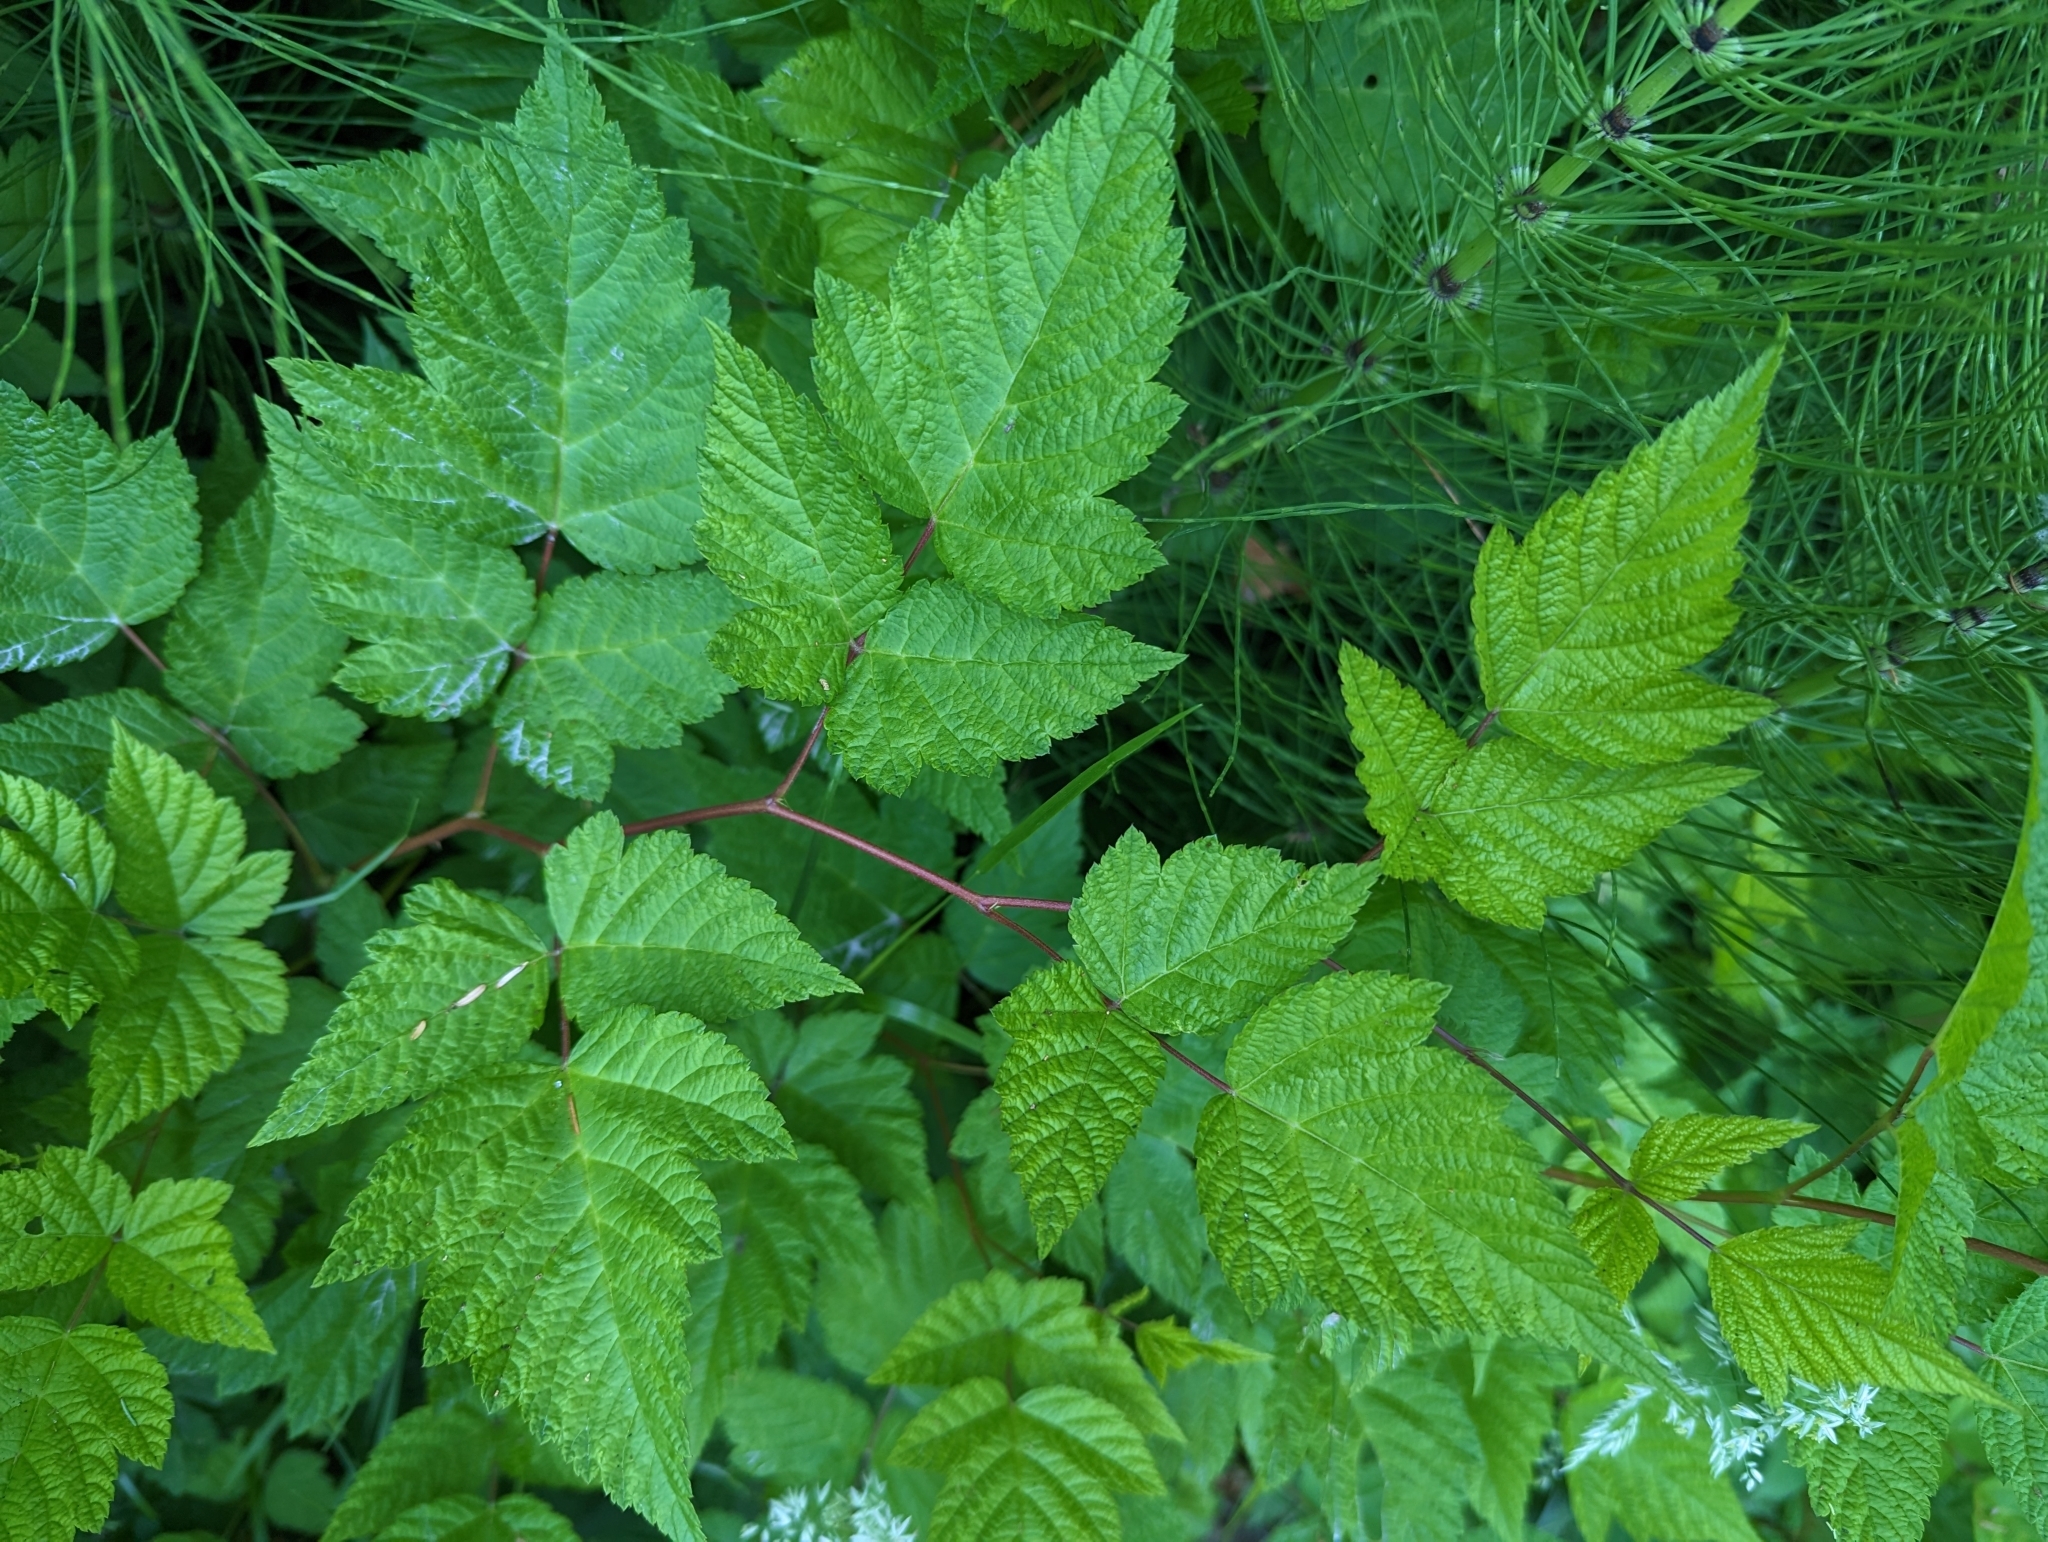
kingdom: Plantae
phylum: Tracheophyta
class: Magnoliopsida
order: Rosales
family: Rosaceae
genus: Rubus
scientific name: Rubus spectabilis
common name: Salmonberry
